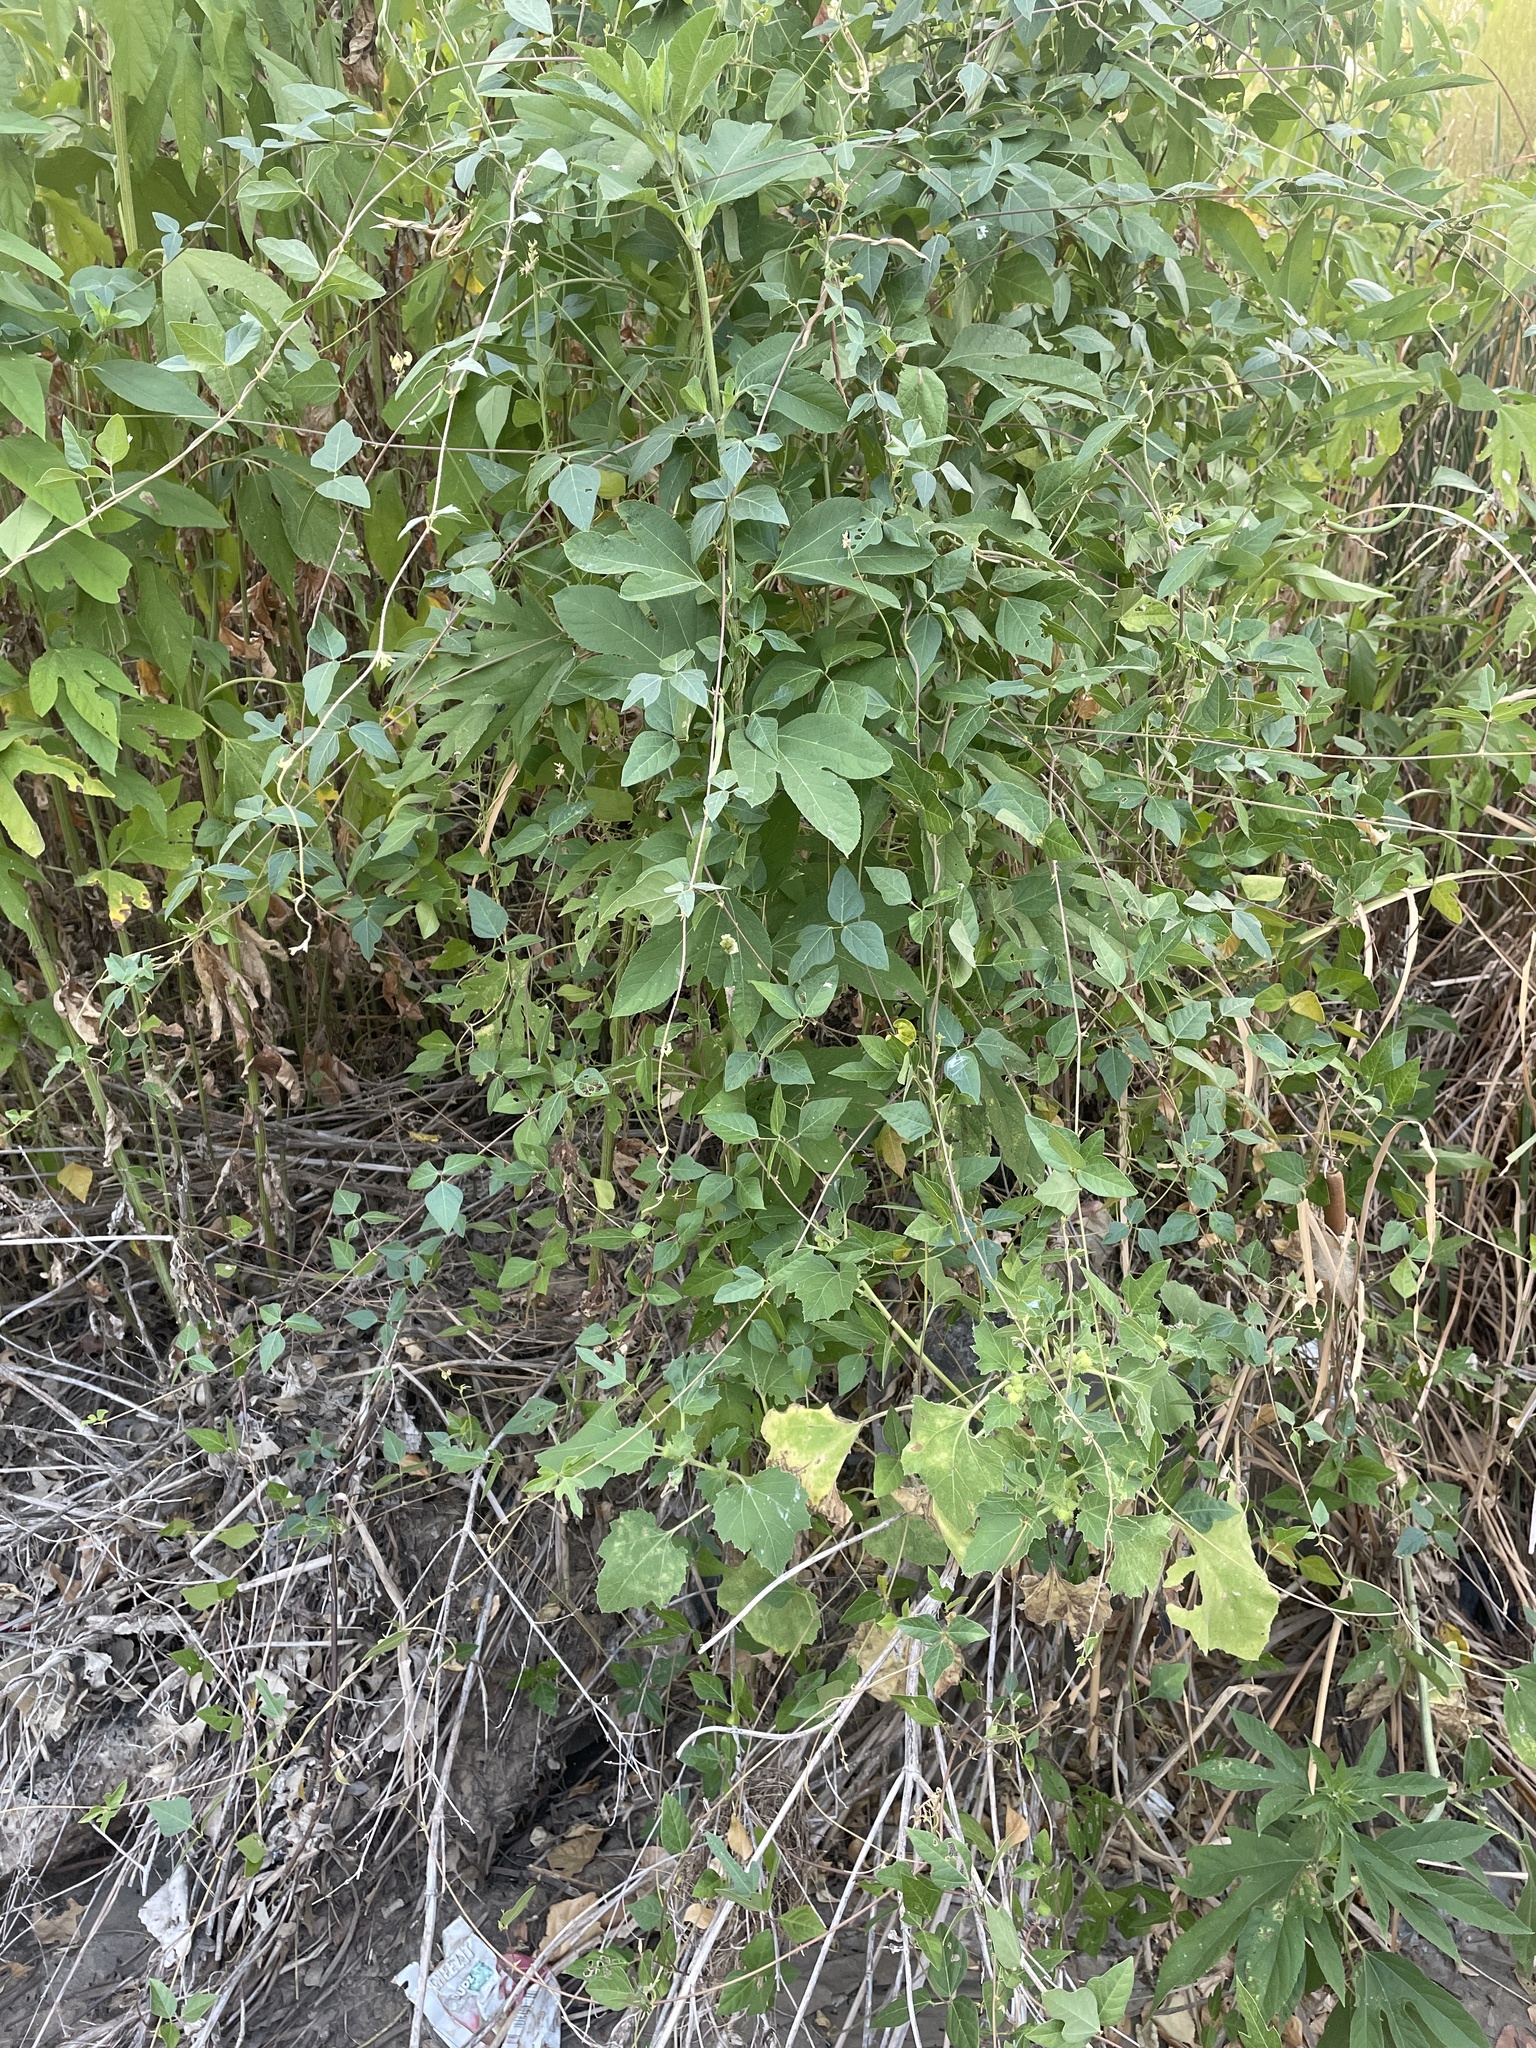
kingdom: Plantae
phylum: Tracheophyta
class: Magnoliopsida
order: Fabales
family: Fabaceae
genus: Strophostyles
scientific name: Strophostyles helvola
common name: Trailing wild bean
